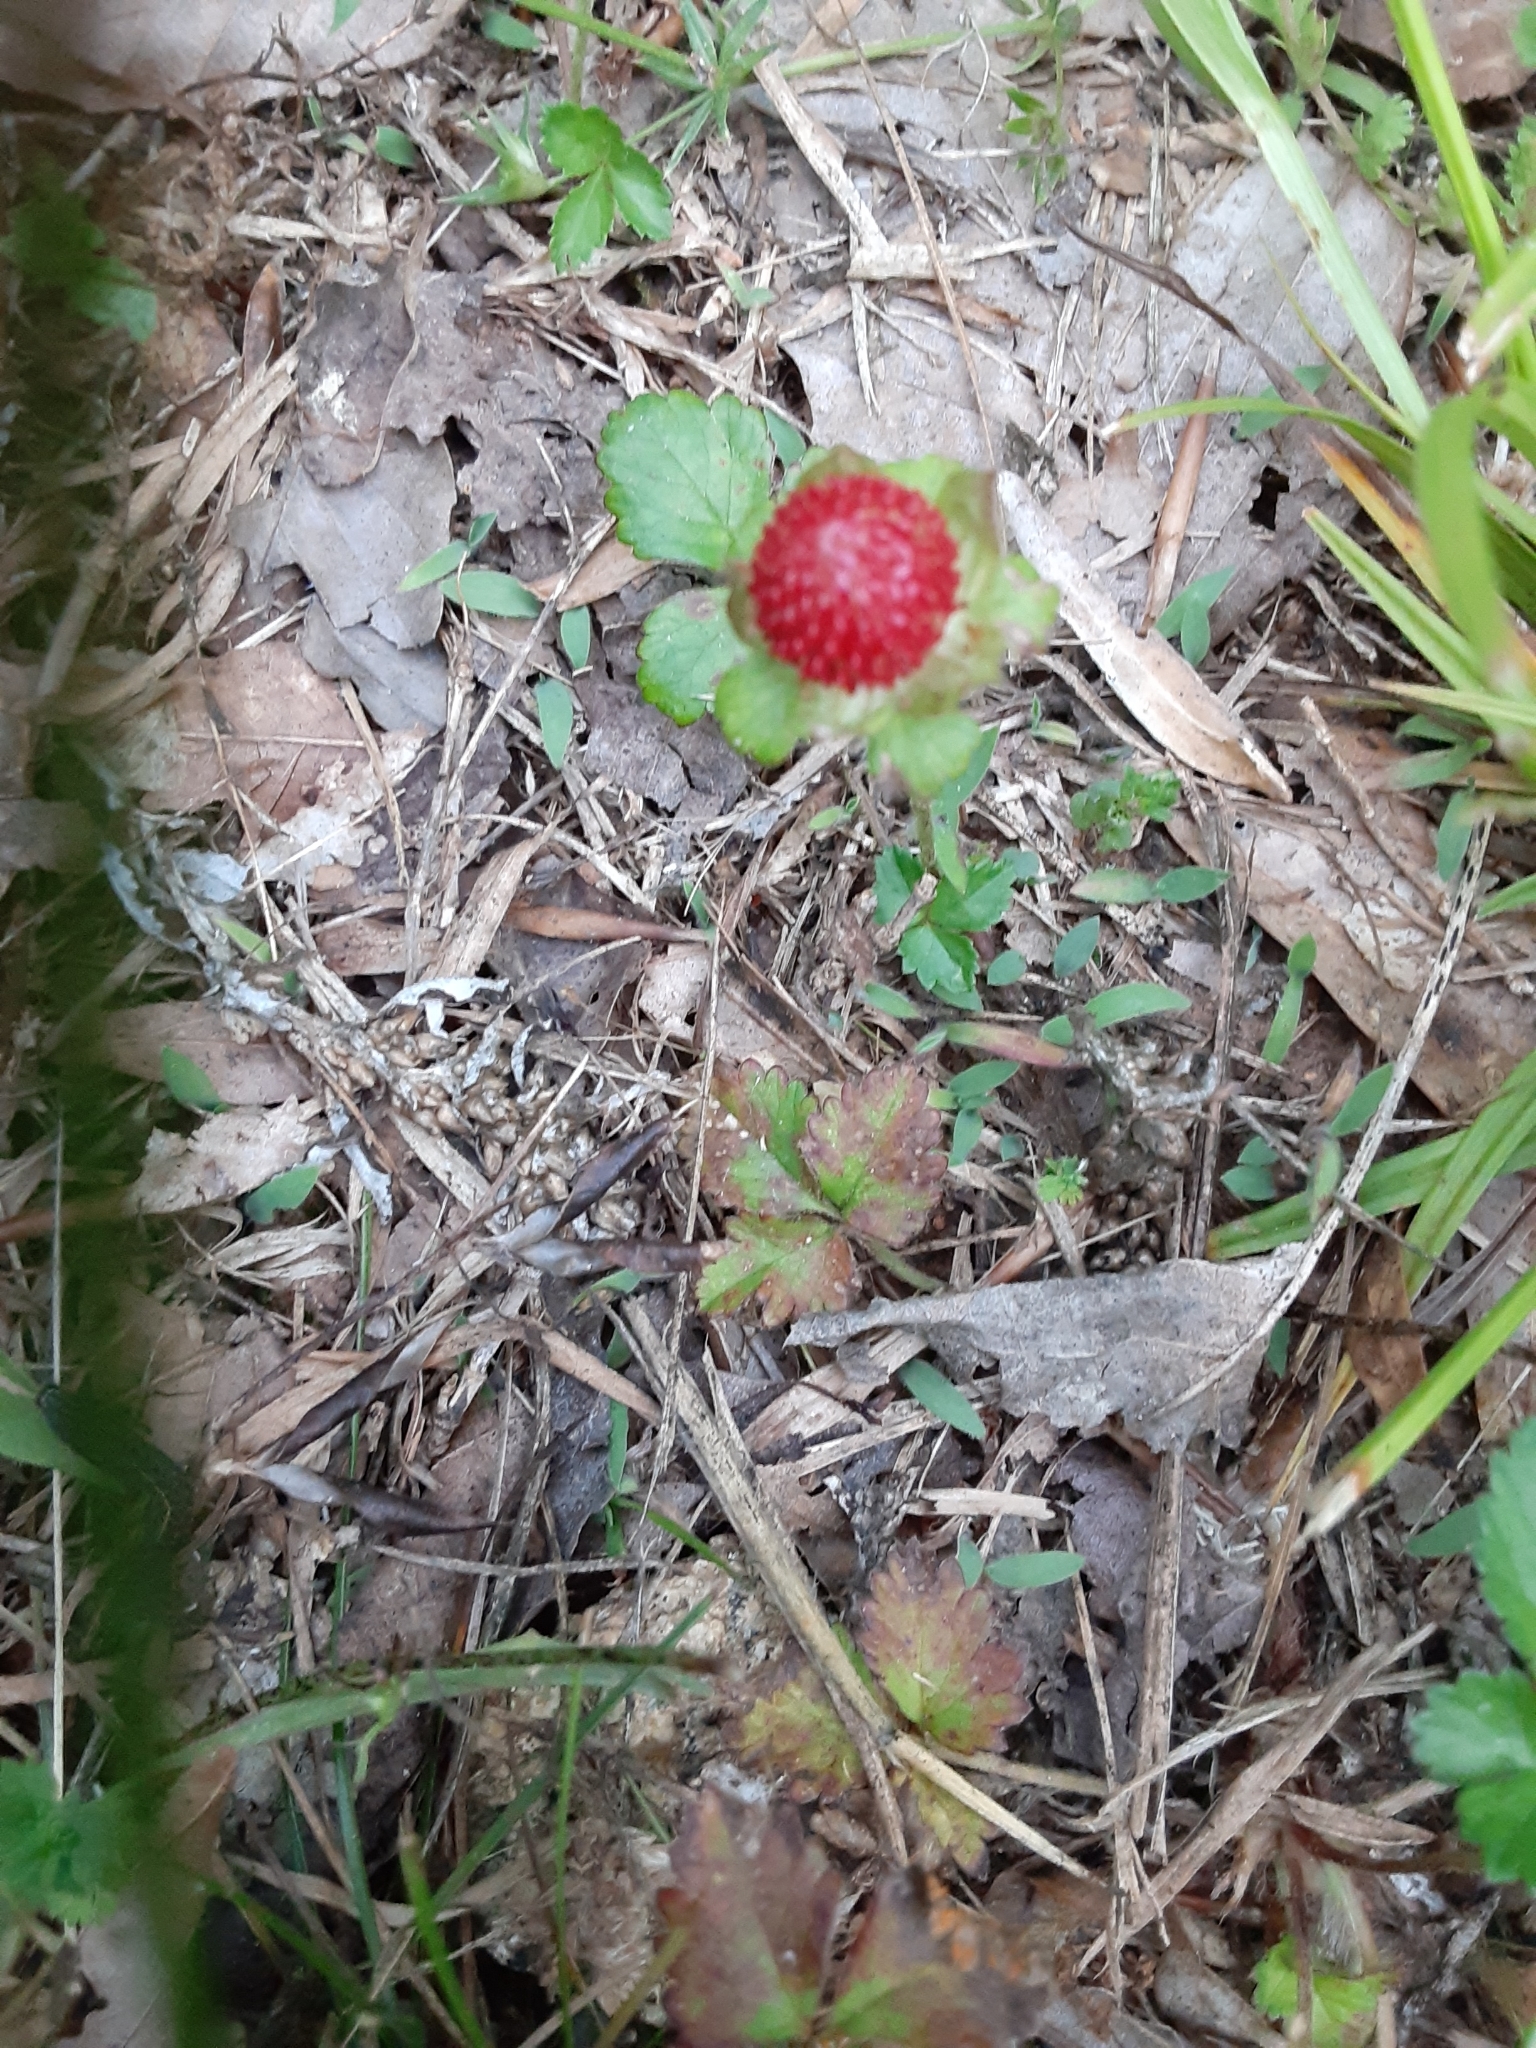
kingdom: Plantae
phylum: Tracheophyta
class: Magnoliopsida
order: Rosales
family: Rosaceae
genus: Potentilla
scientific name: Potentilla indica
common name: Yellow-flowered strawberry
